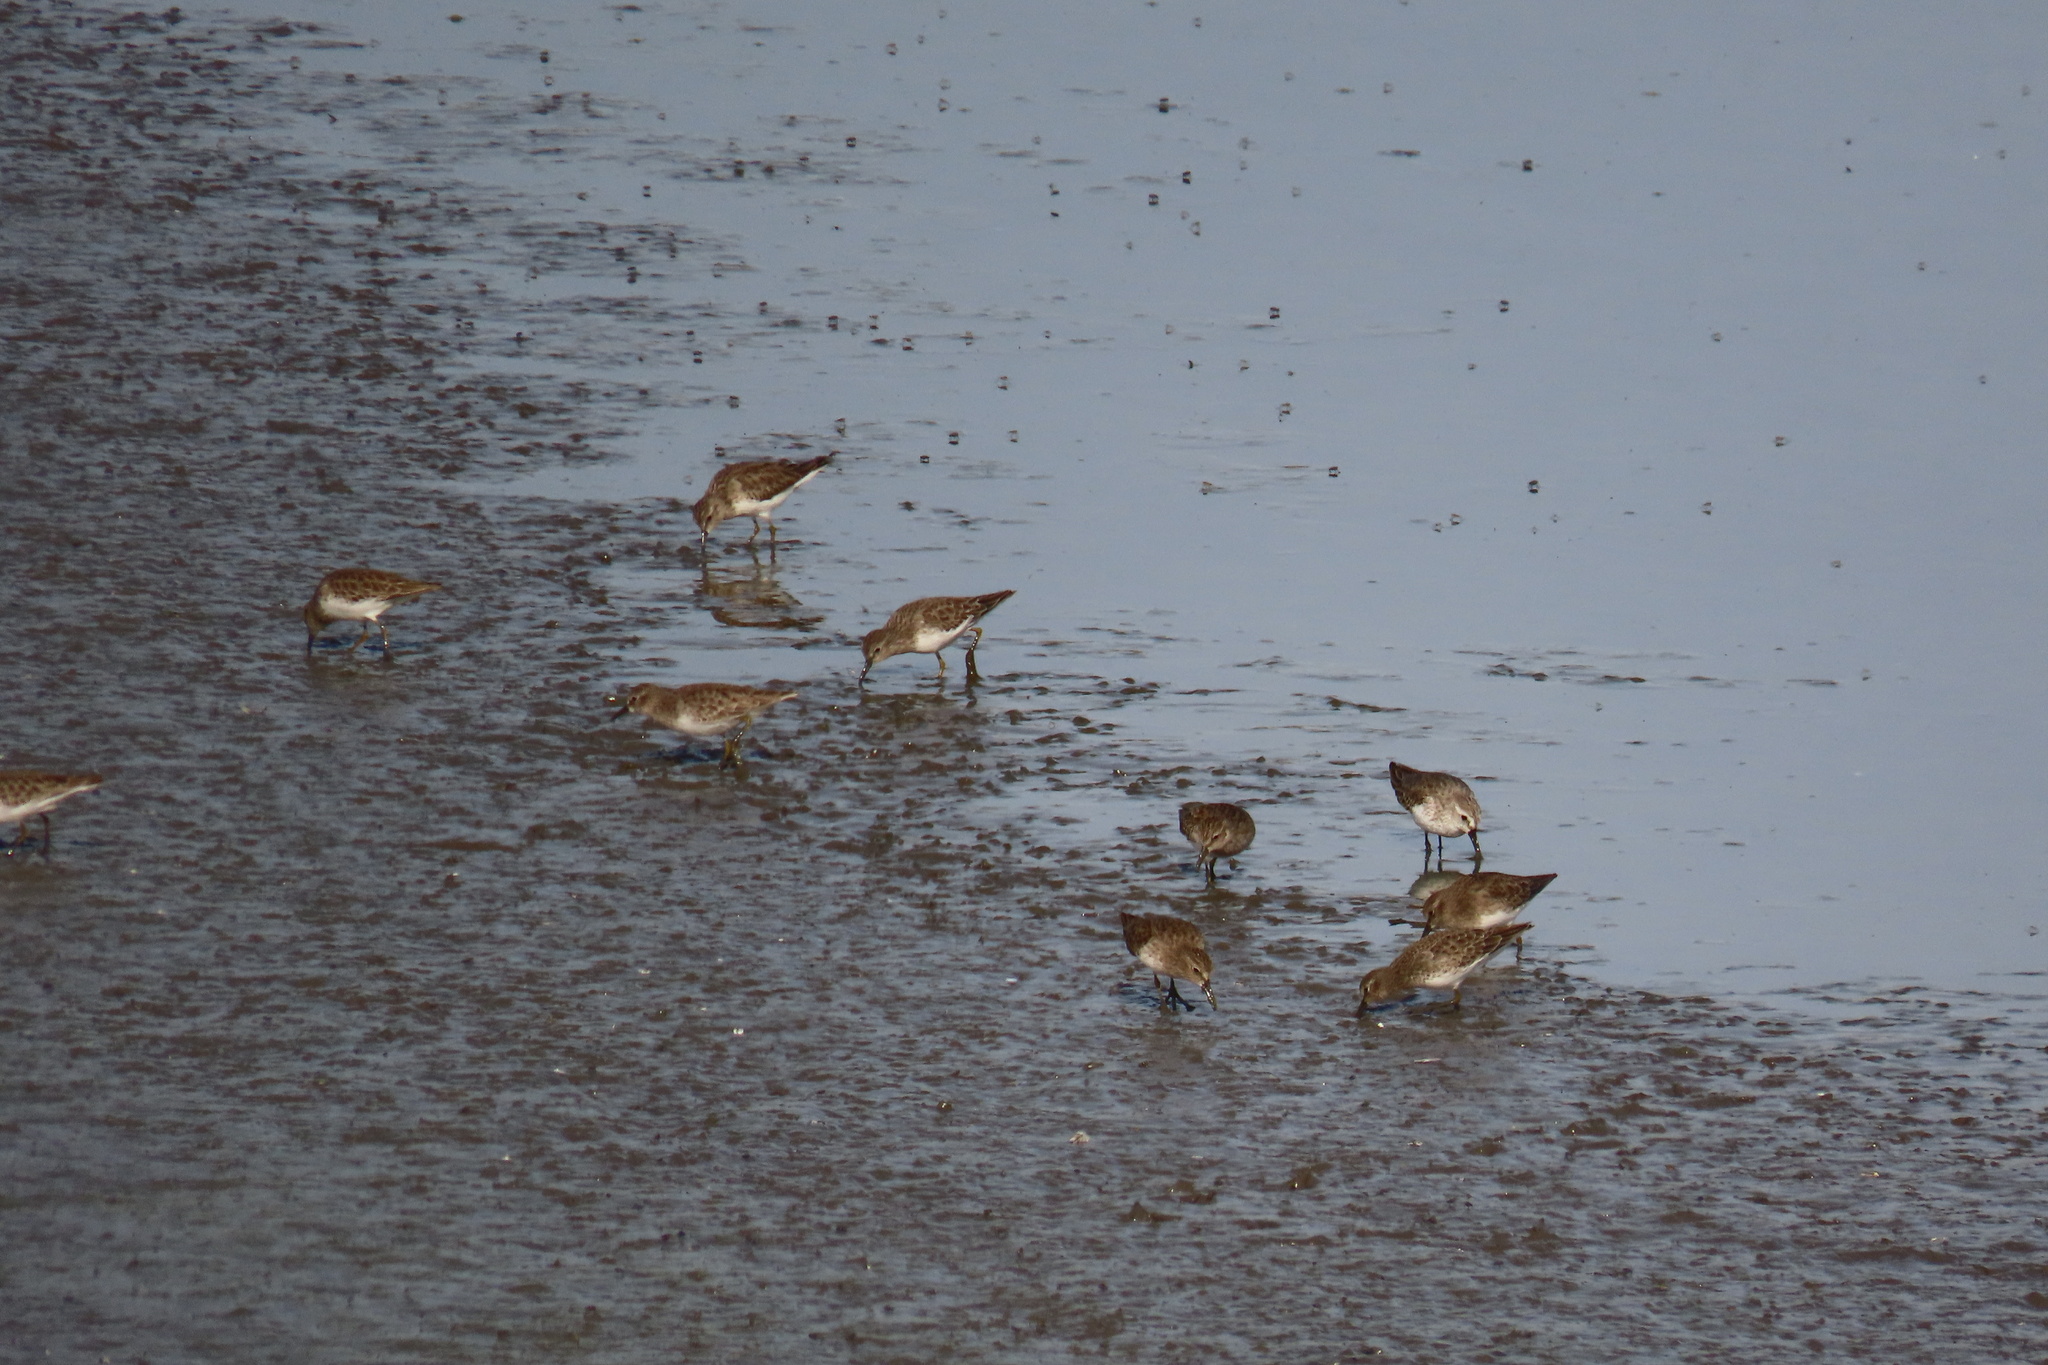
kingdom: Animalia
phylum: Chordata
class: Aves
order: Charadriiformes
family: Scolopacidae
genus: Calidris
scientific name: Calidris mauri
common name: Western sandpiper
